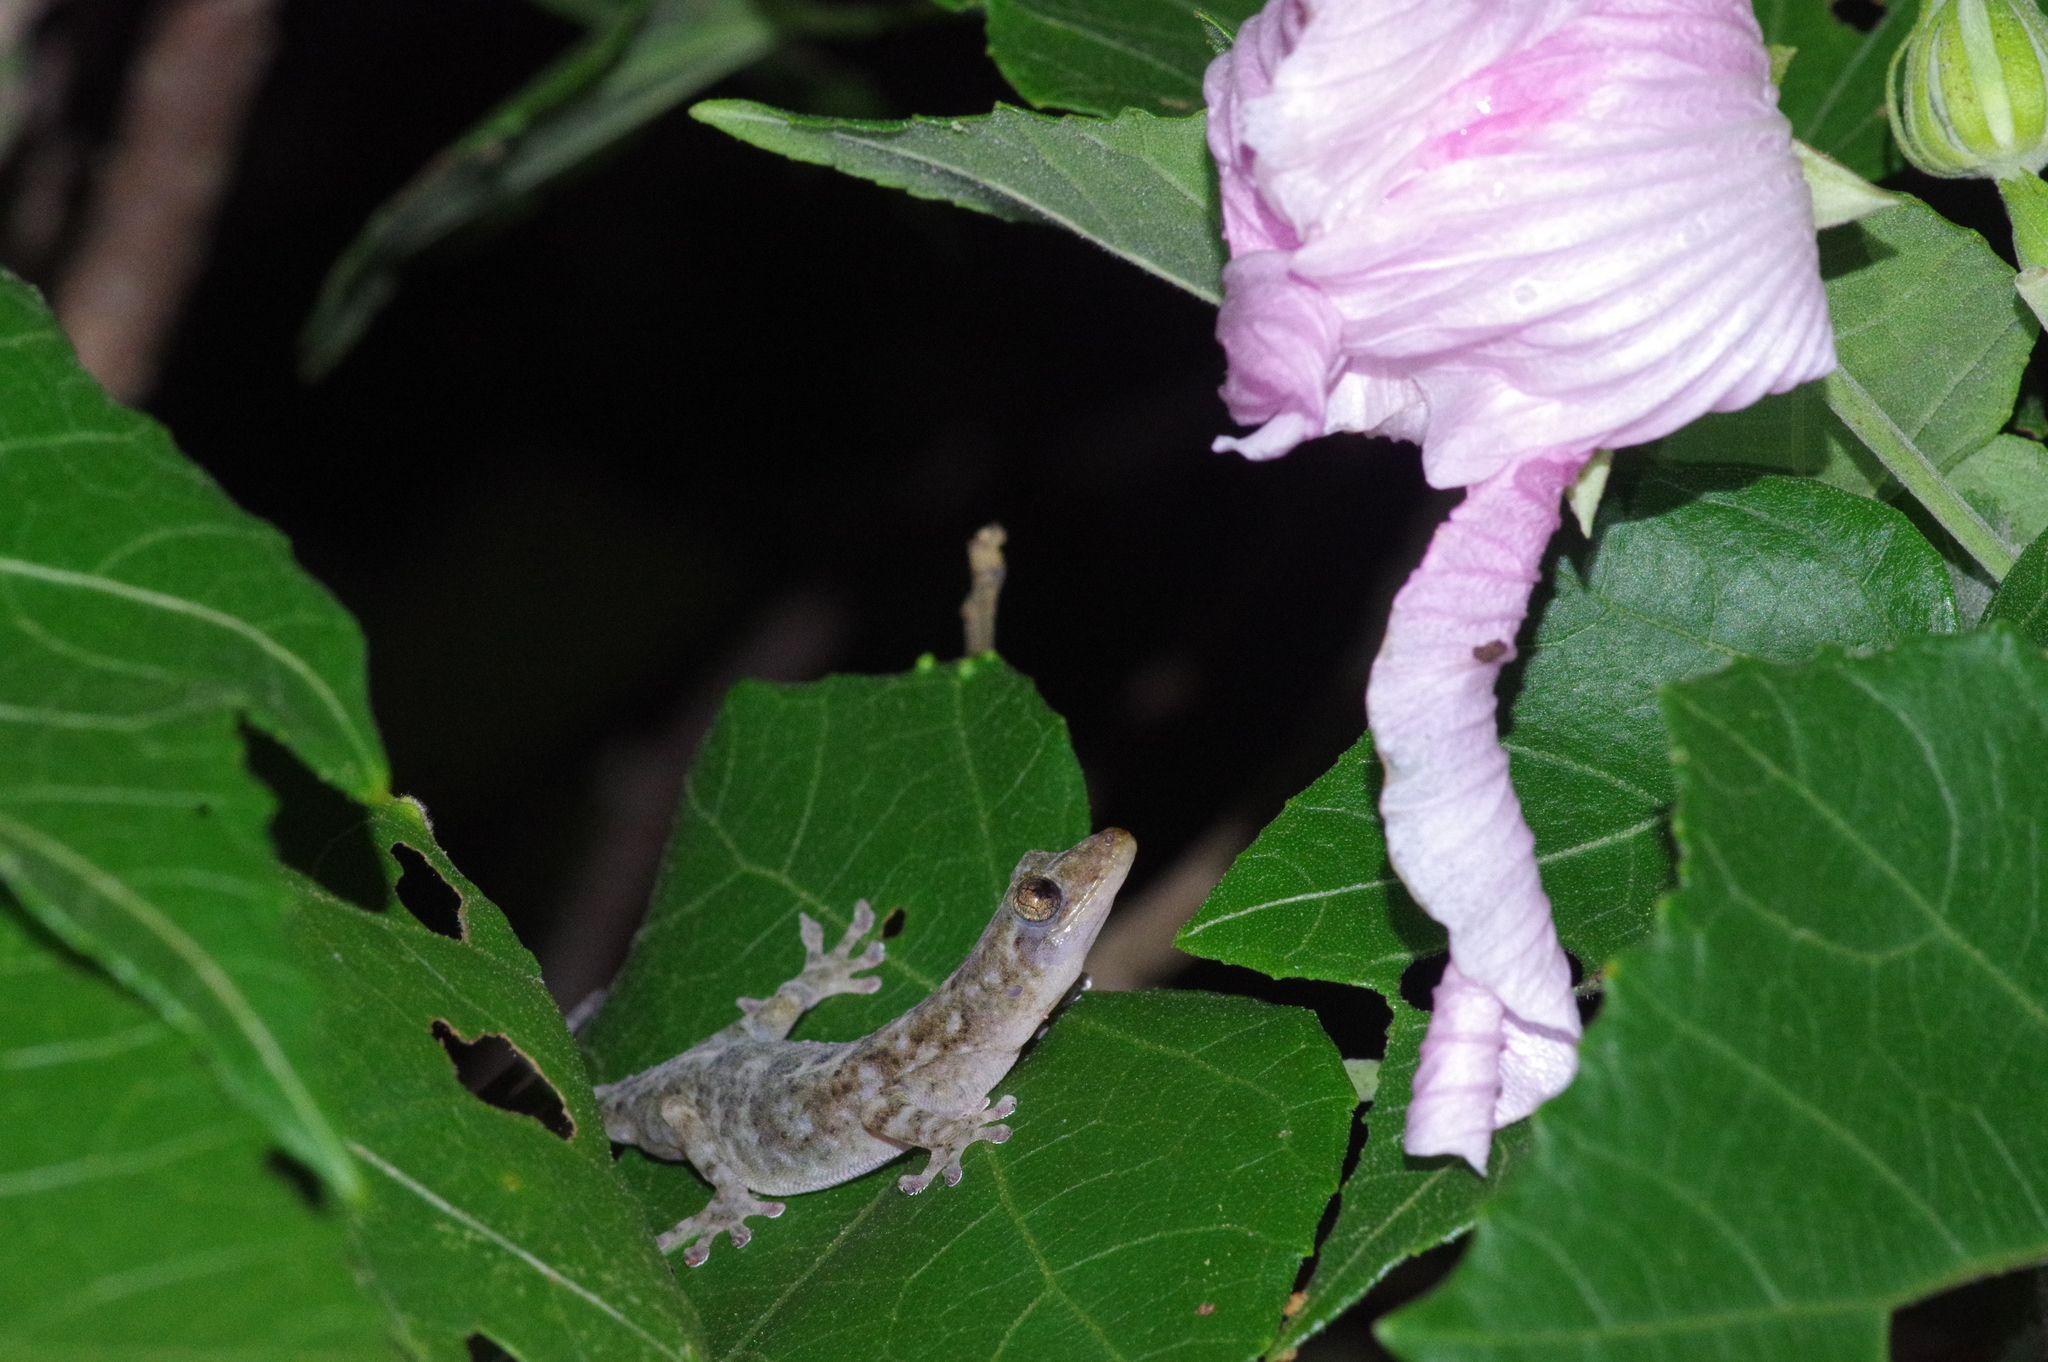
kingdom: Animalia
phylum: Chordata
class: Squamata
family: Gekkonidae
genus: Gekko
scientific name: Gekko hokouensis
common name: Kwangsi gecko
